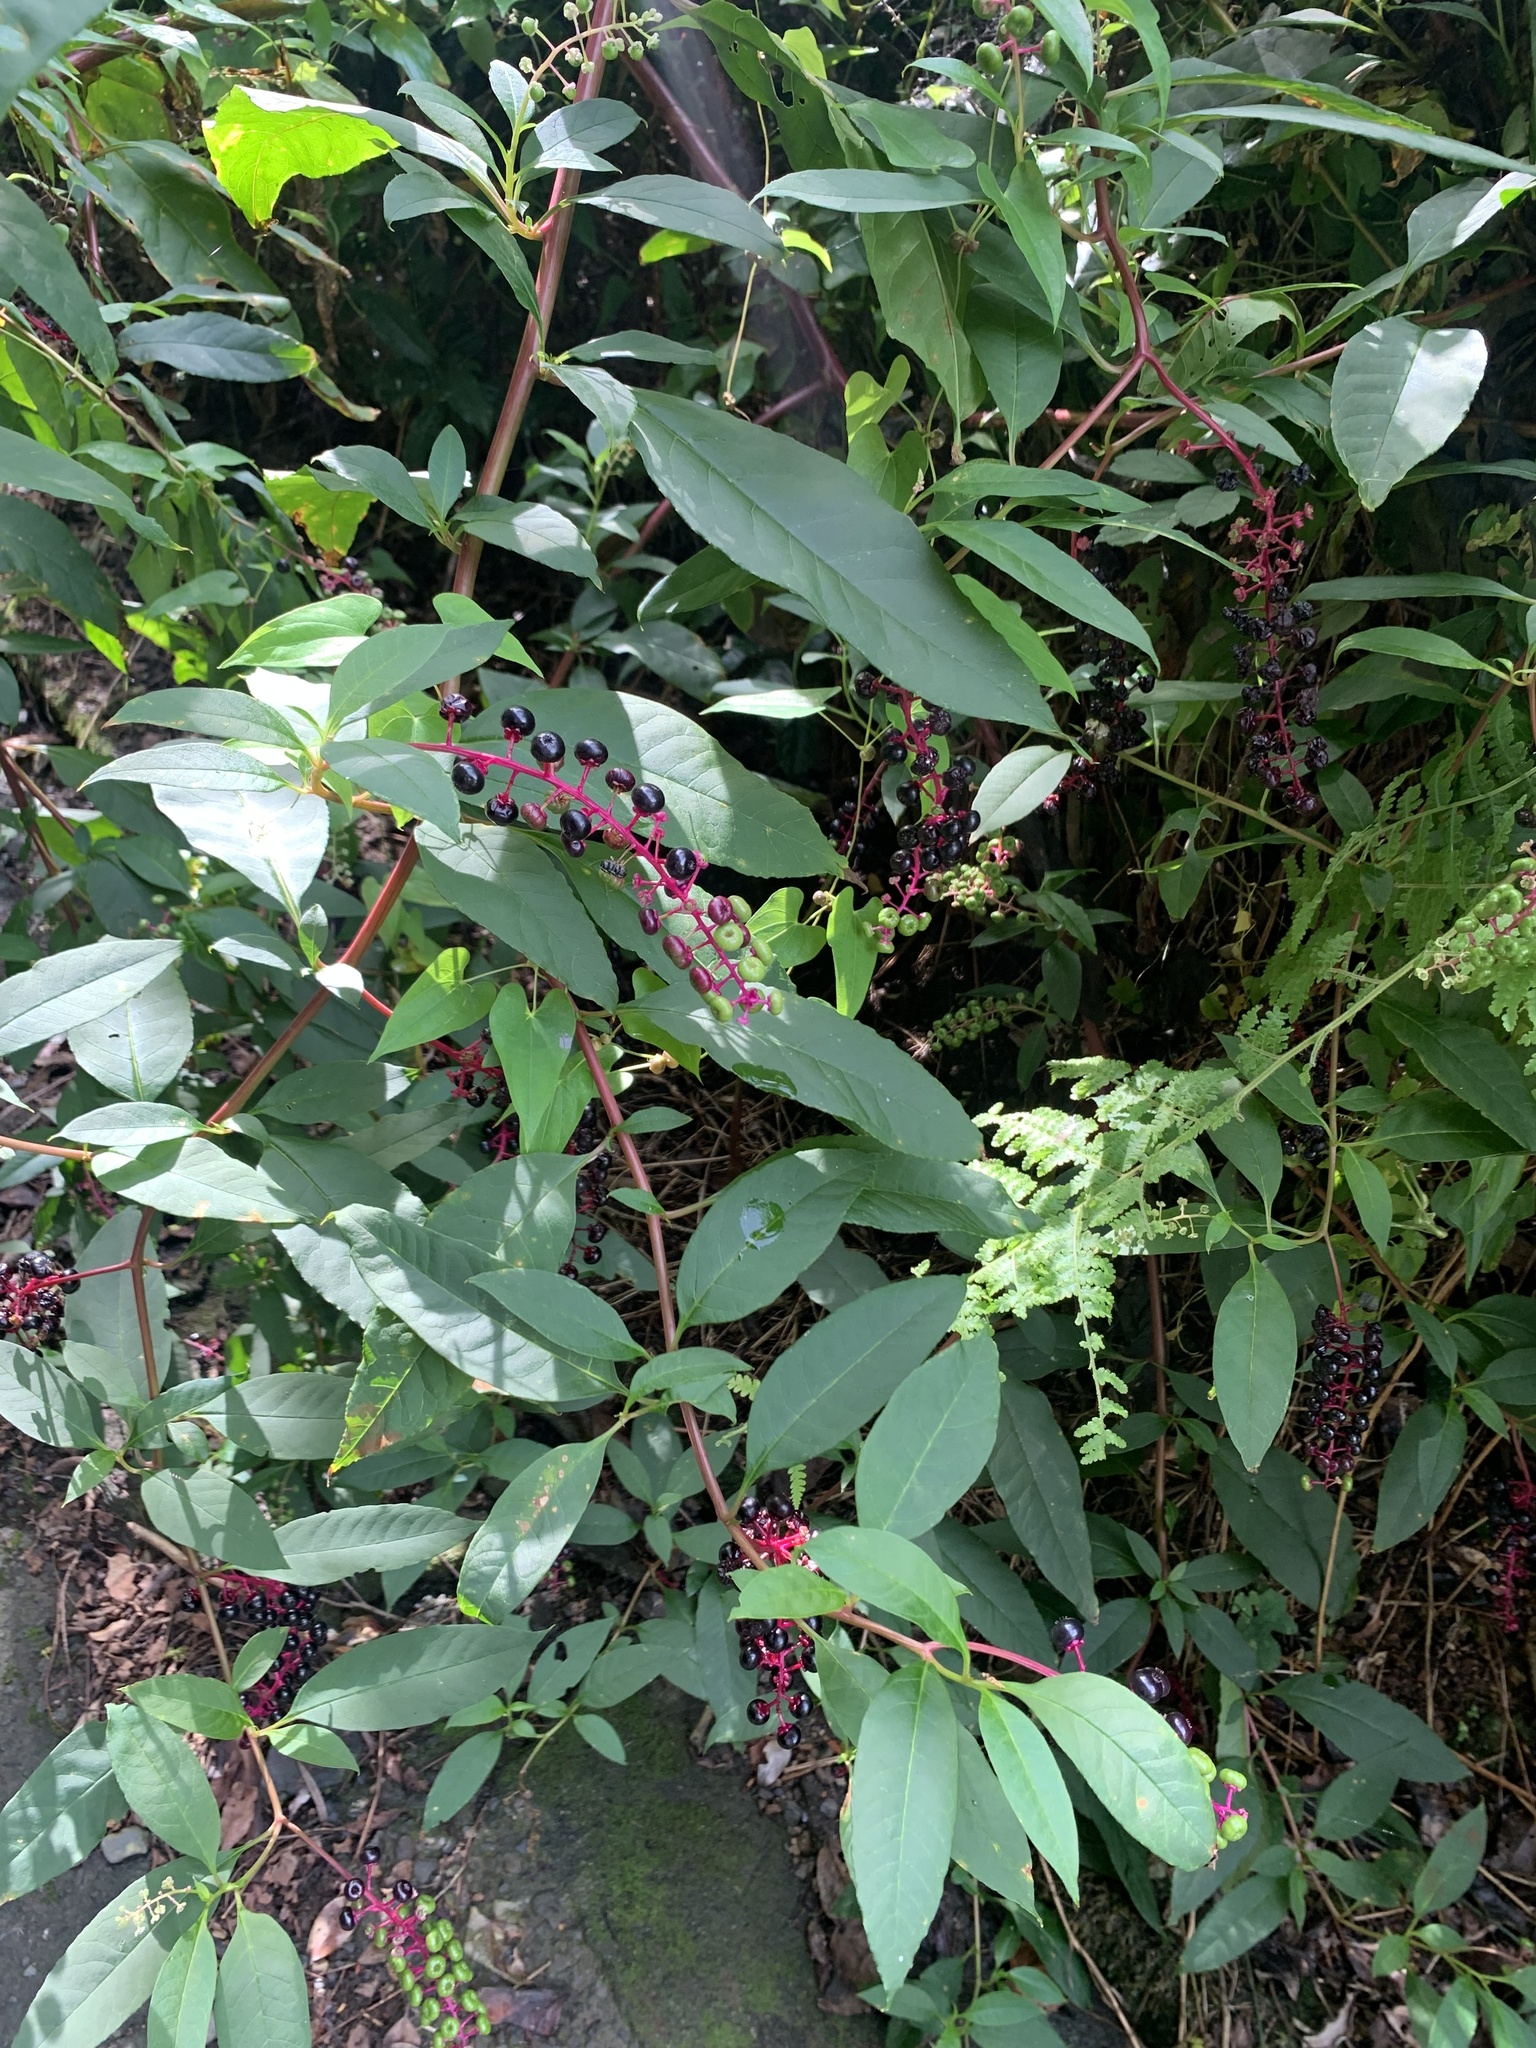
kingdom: Plantae
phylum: Tracheophyta
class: Magnoliopsida
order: Caryophyllales
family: Phytolaccaceae
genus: Phytolacca
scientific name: Phytolacca americana
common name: American pokeweed
